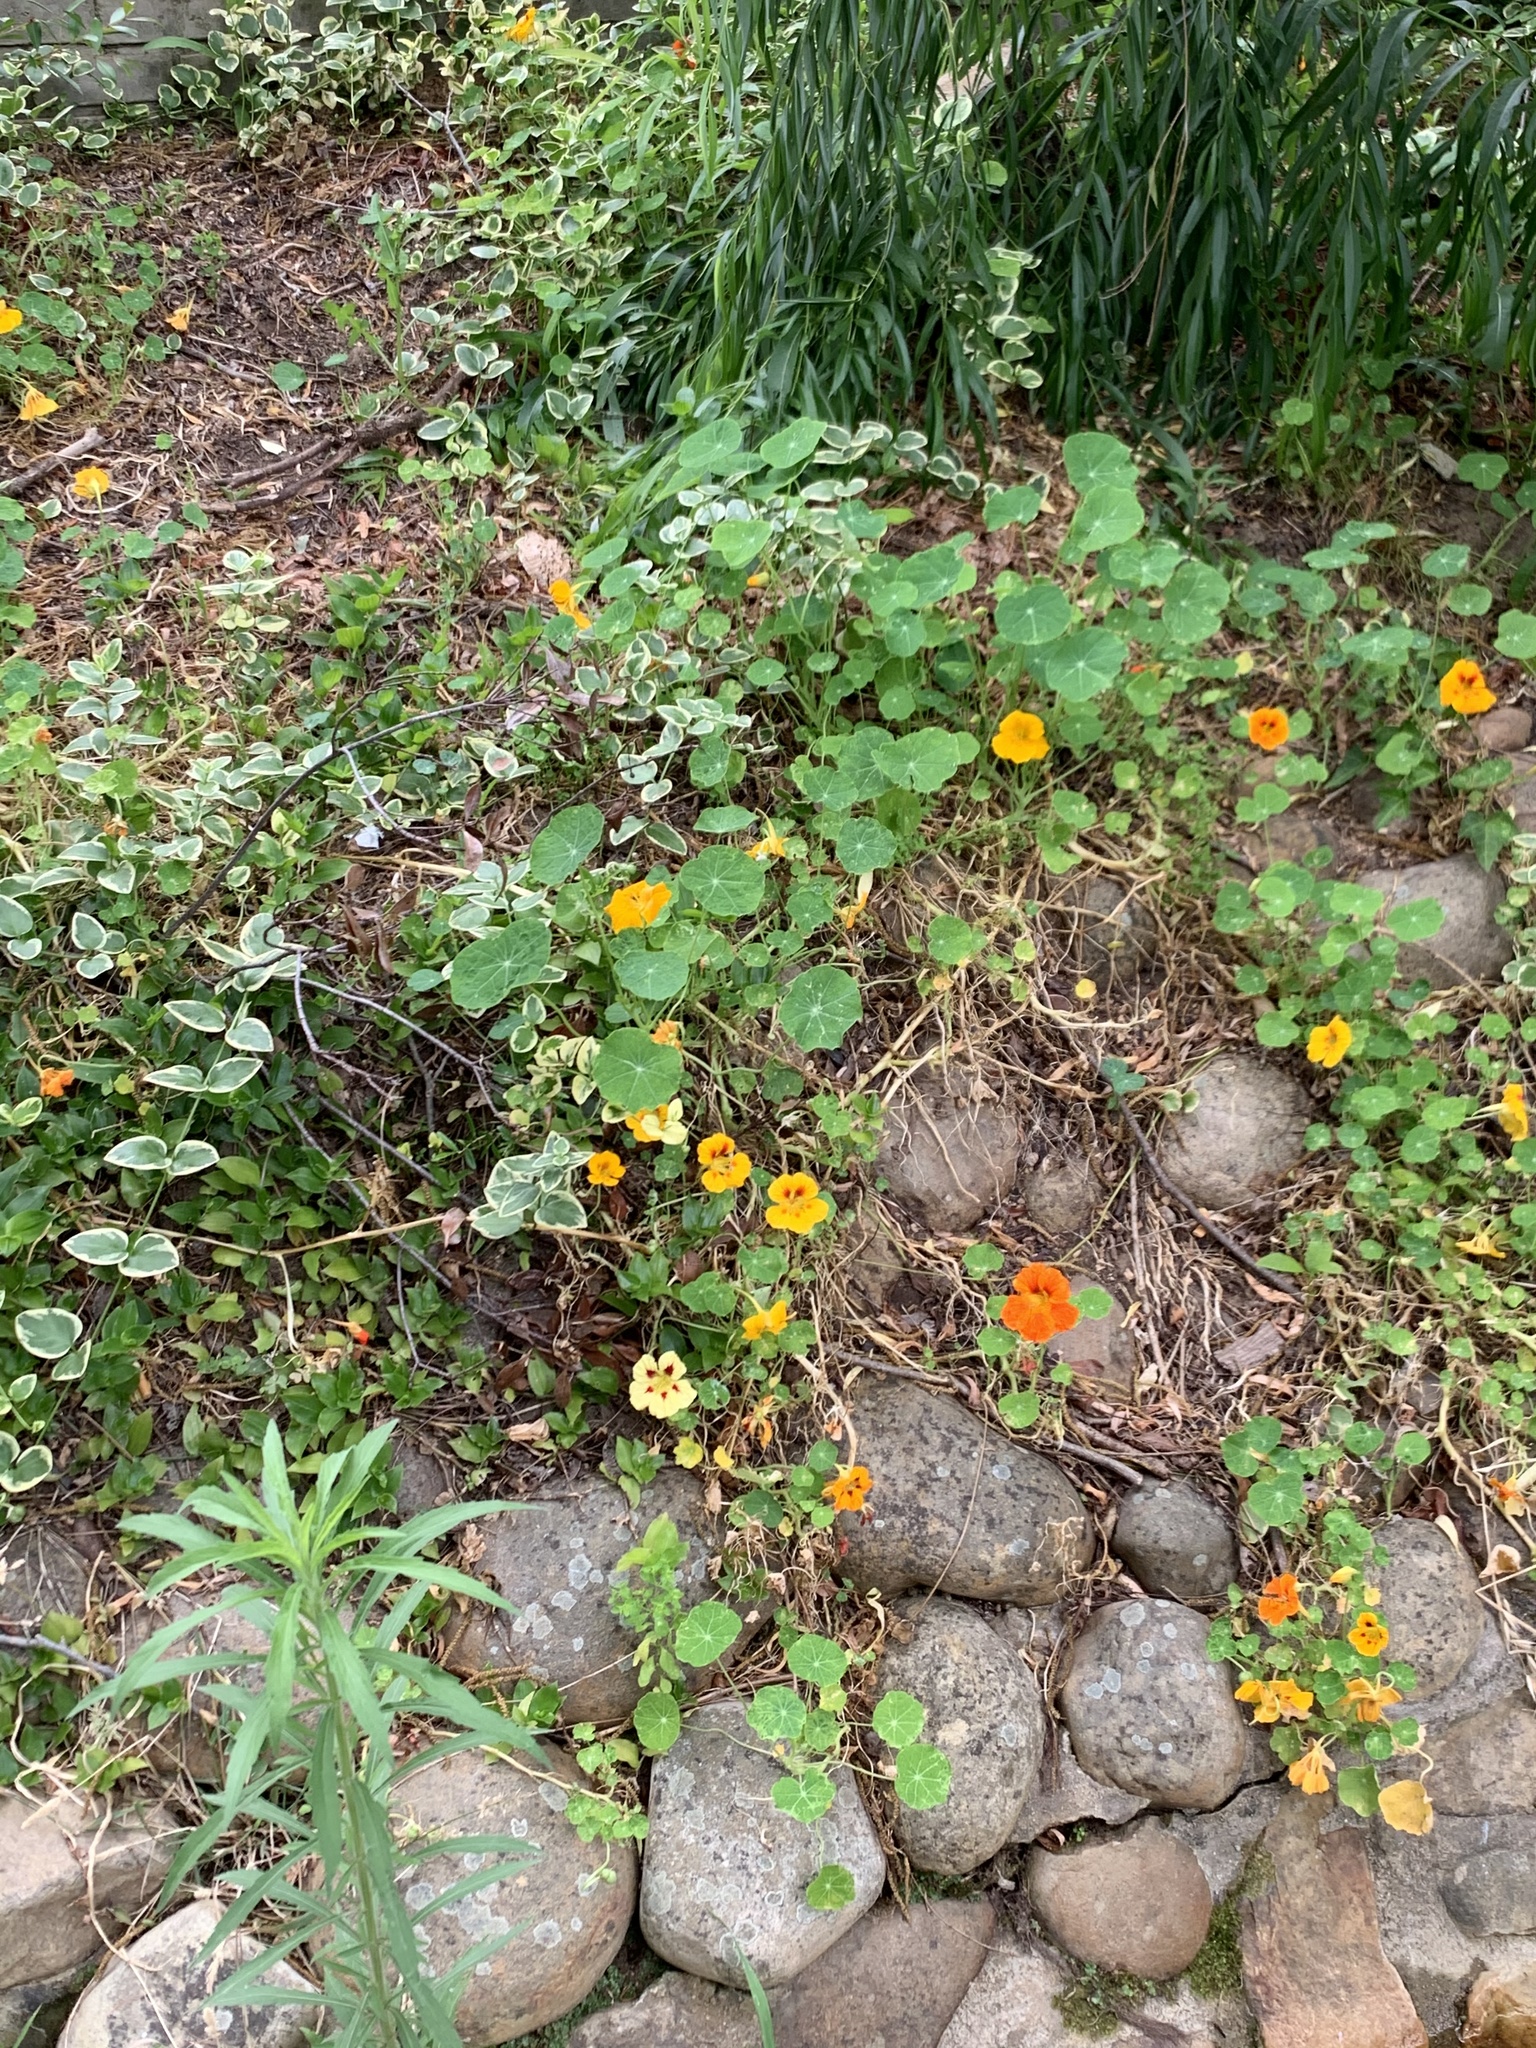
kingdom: Plantae
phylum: Tracheophyta
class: Magnoliopsida
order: Brassicales
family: Tropaeolaceae
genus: Tropaeolum
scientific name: Tropaeolum majus
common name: Nasturtium
